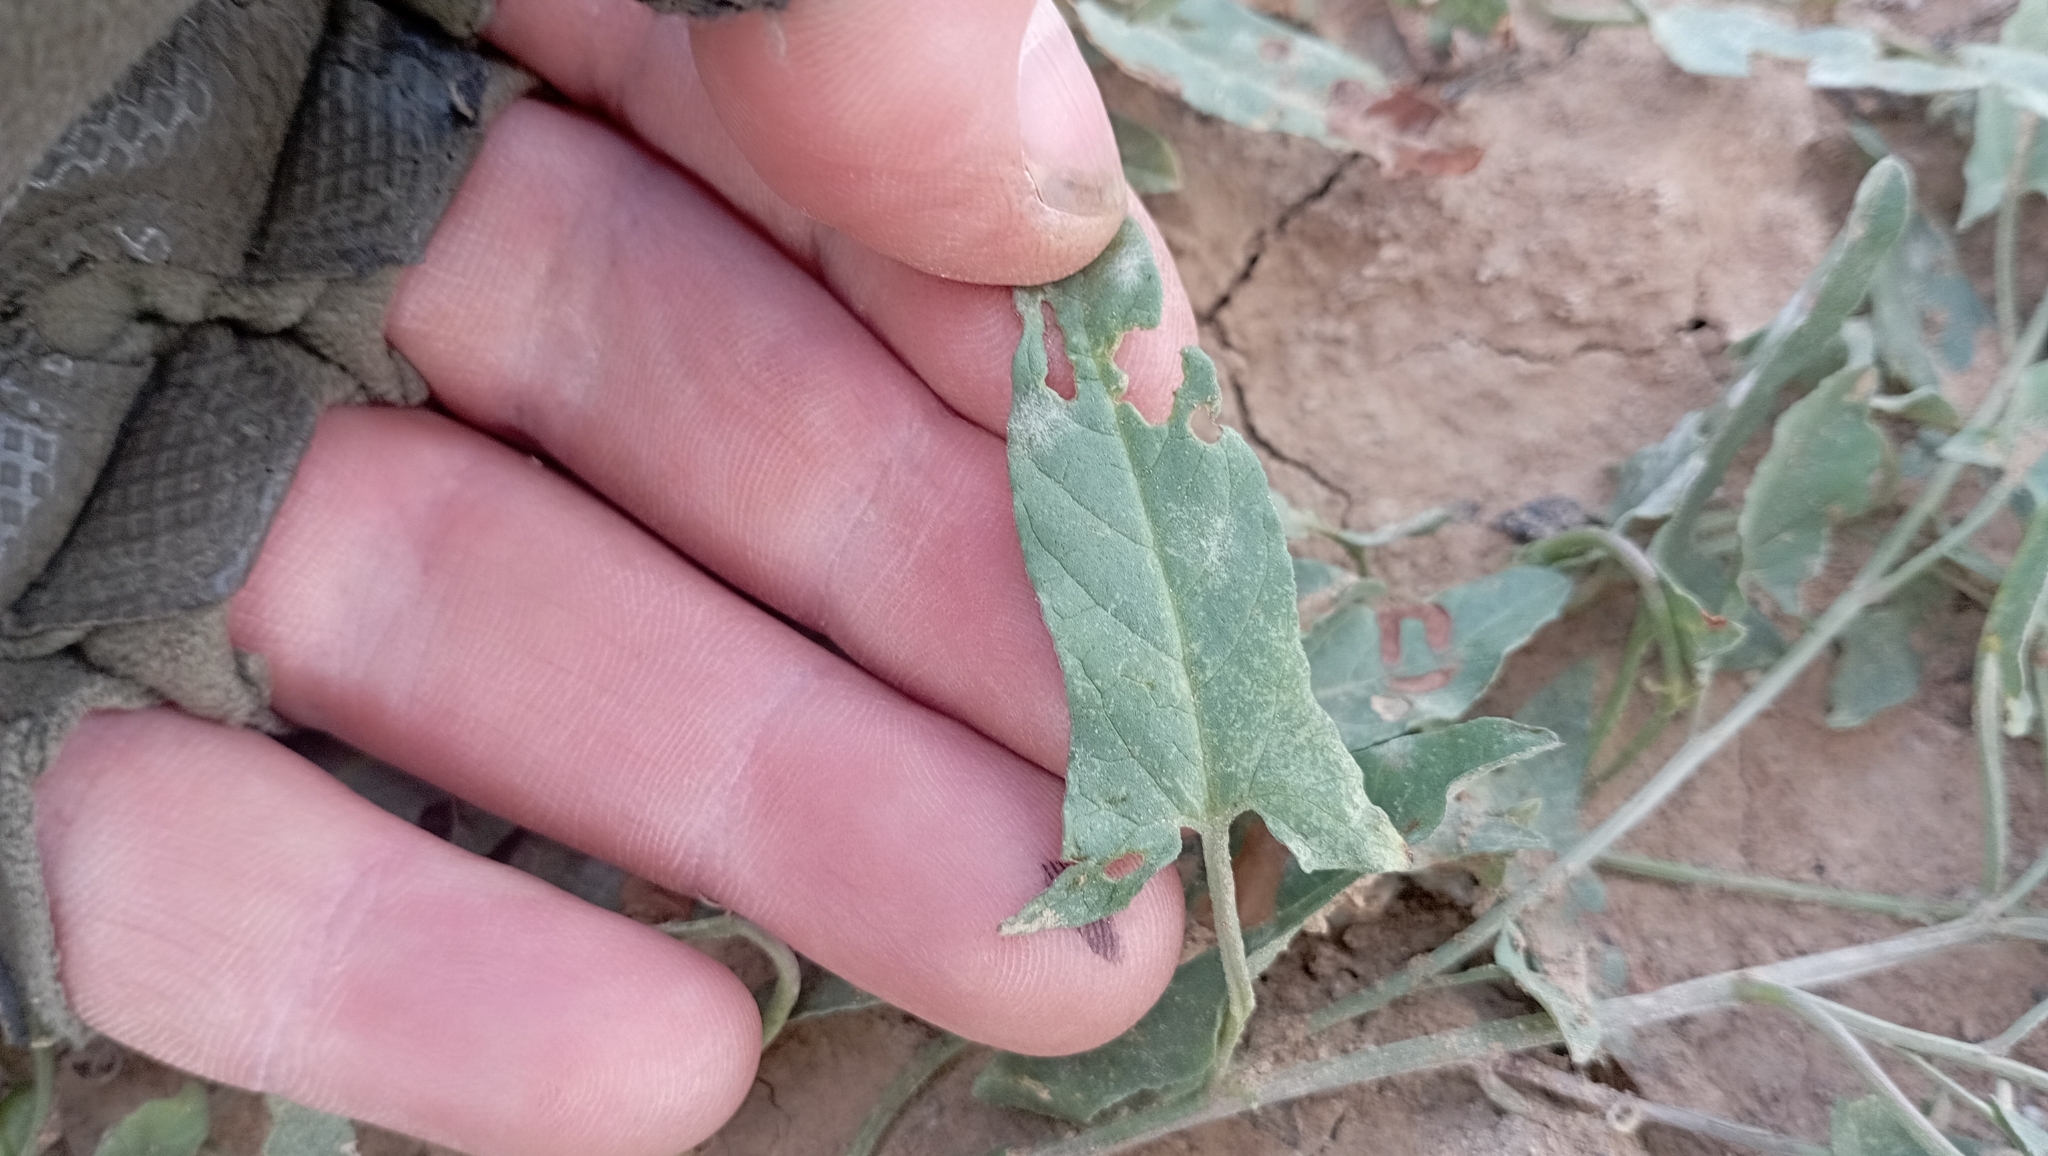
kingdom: Plantae
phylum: Tracheophyta
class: Magnoliopsida
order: Solanales
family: Convolvulaceae
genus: Convolvulus
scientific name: Convolvulus arvensis
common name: Field bindweed
